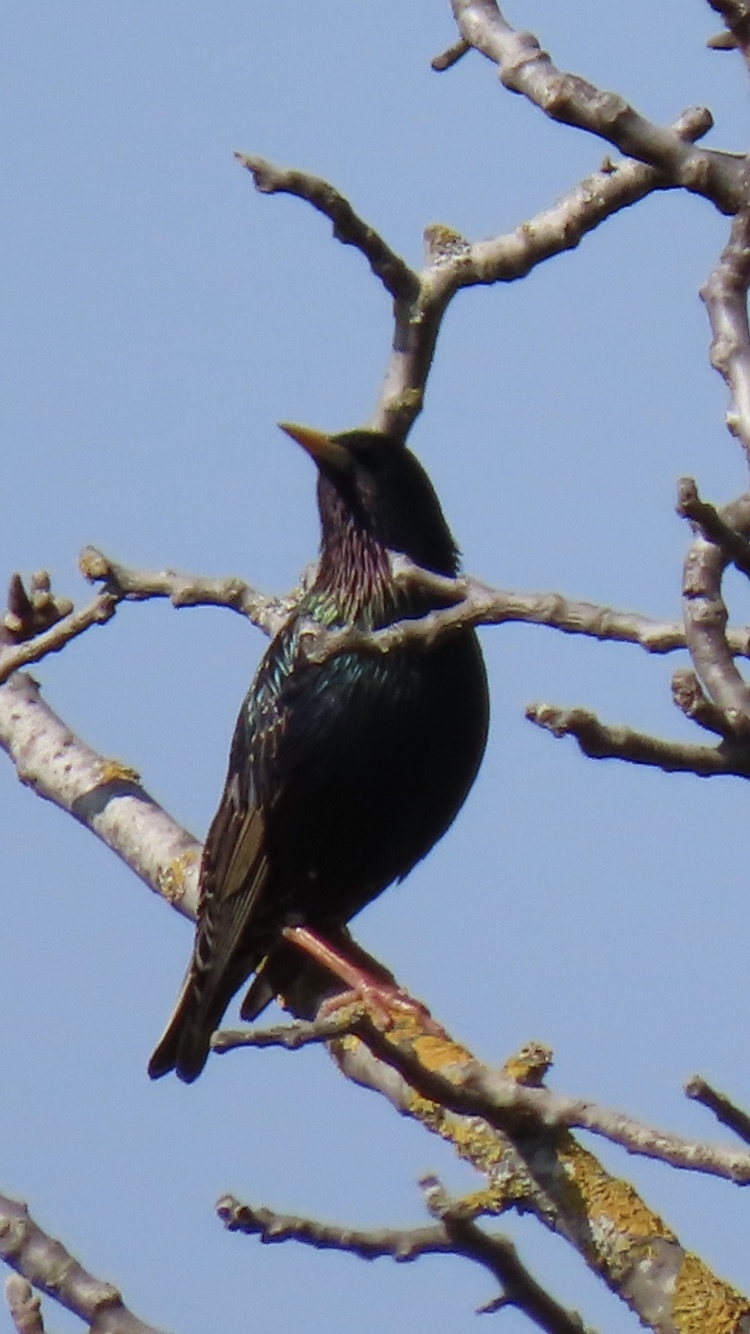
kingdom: Animalia
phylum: Chordata
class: Aves
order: Passeriformes
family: Sturnidae
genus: Sturnus
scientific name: Sturnus vulgaris
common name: Common starling
